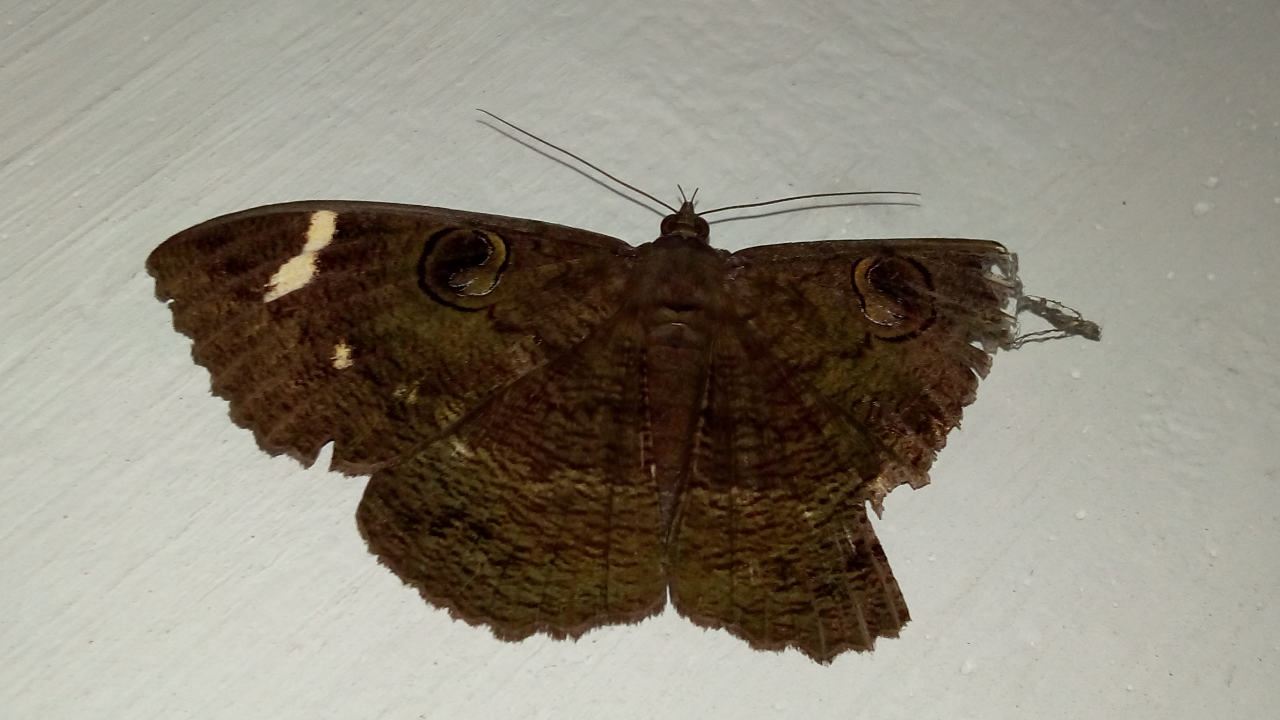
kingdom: Animalia
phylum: Arthropoda
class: Insecta
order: Lepidoptera
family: Erebidae
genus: Erebus
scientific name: Erebus hieroglyphica
